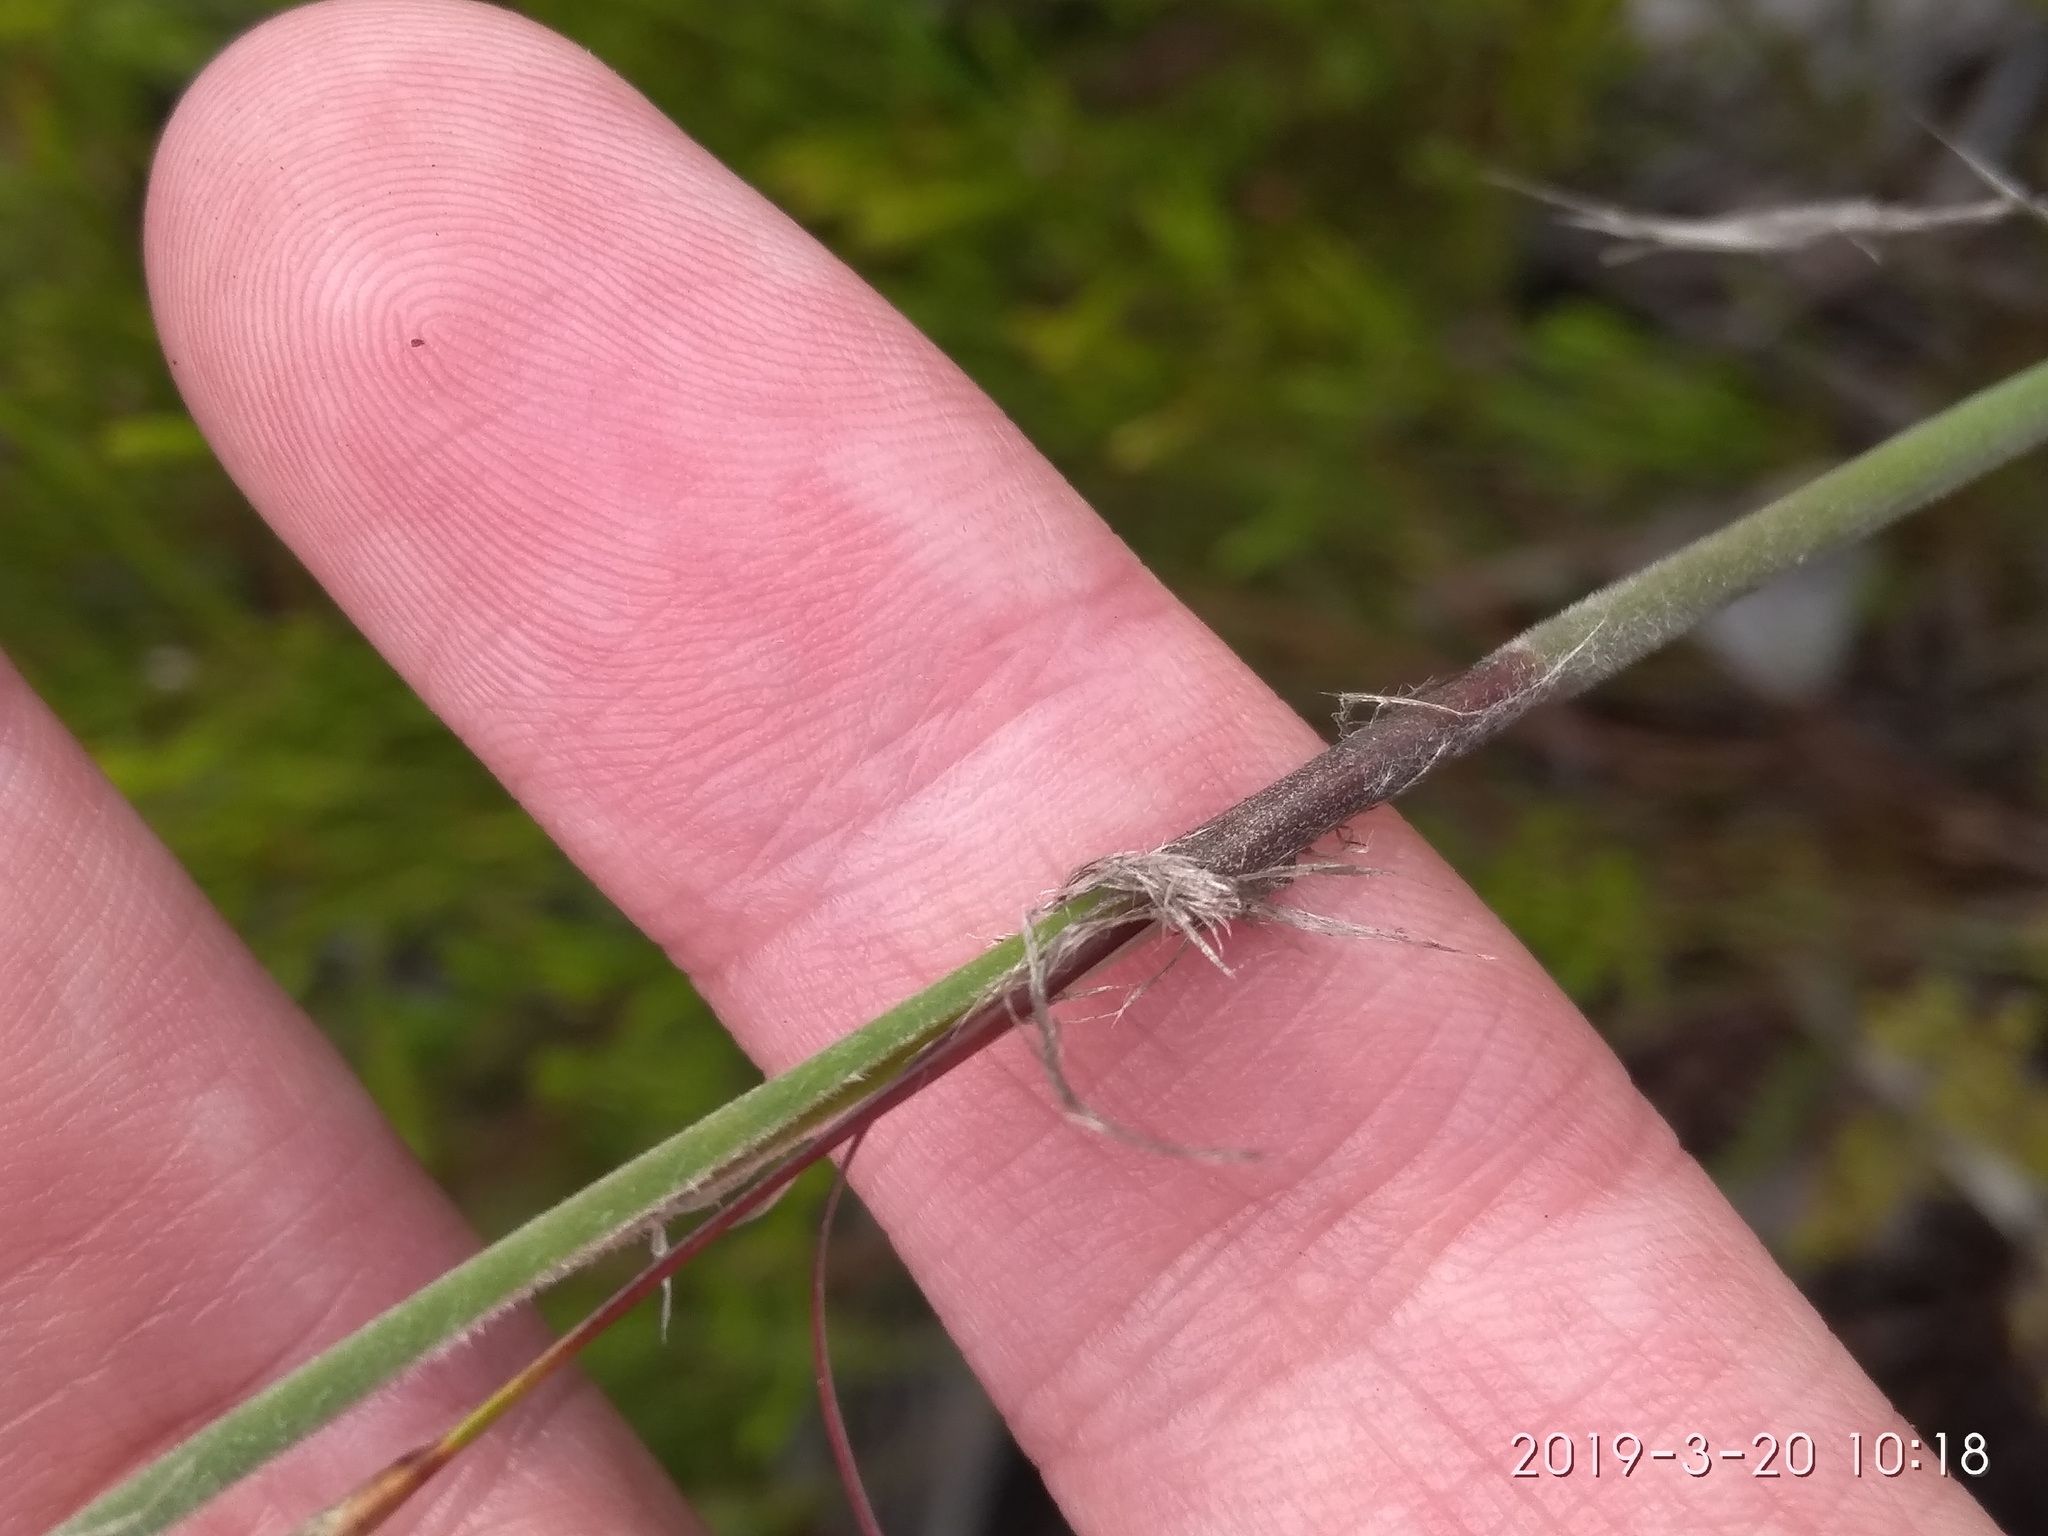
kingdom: Plantae
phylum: Tracheophyta
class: Liliopsida
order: Poales
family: Restionaceae
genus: Thamnochortus
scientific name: Thamnochortus cinereus
